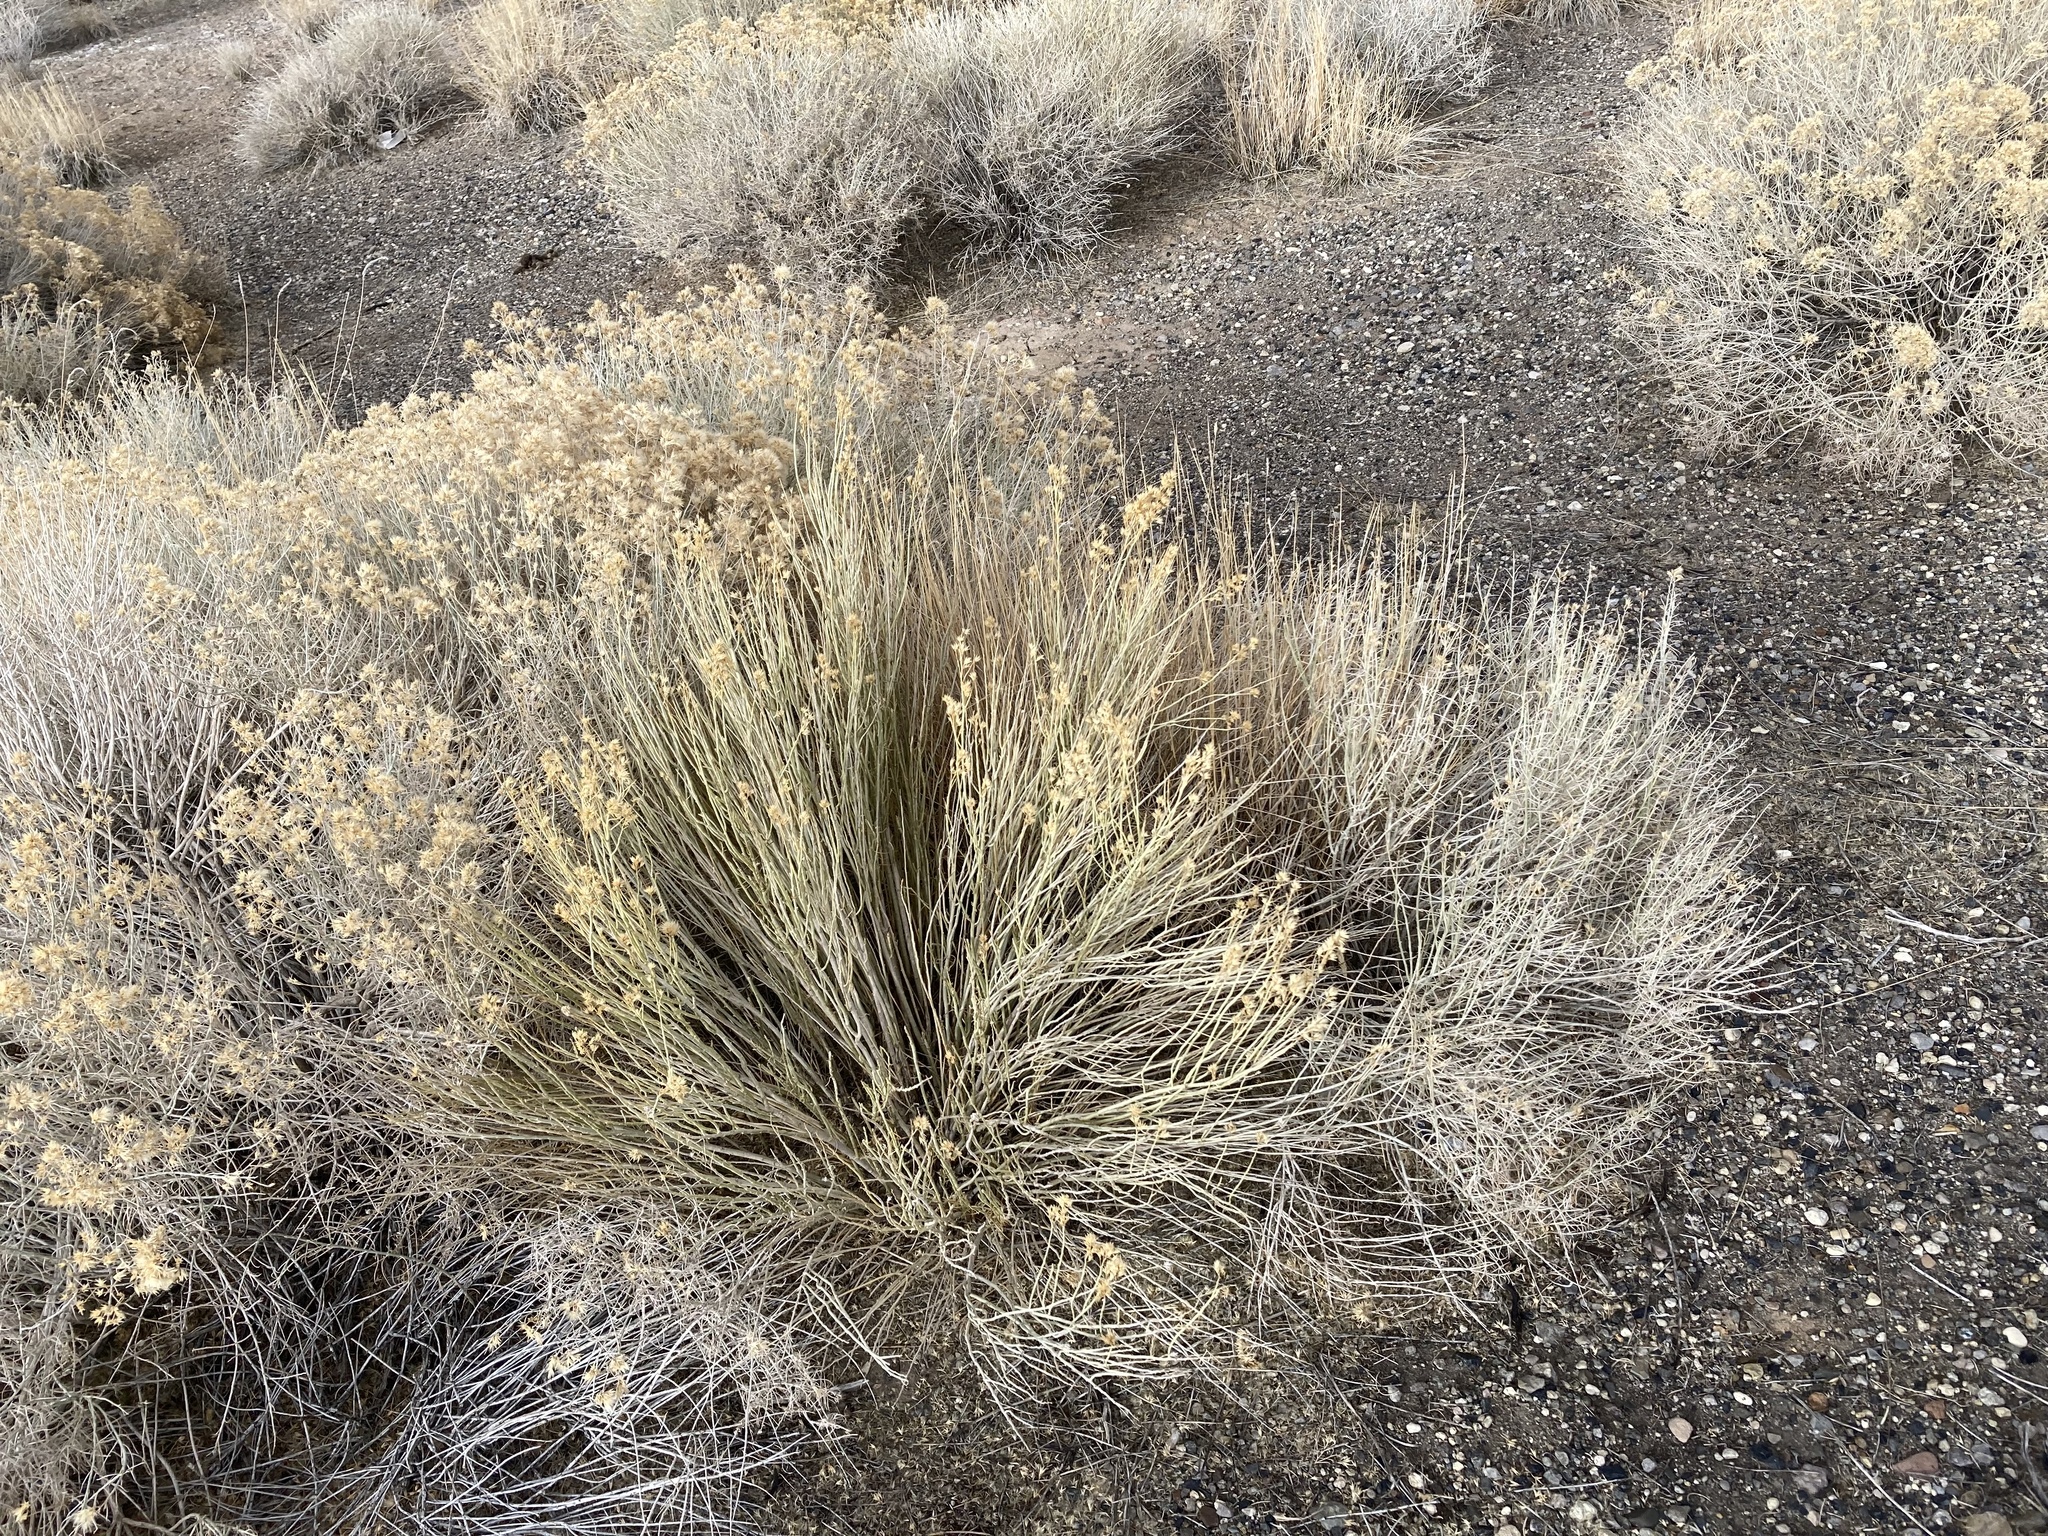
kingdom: Plantae
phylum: Tracheophyta
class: Magnoliopsida
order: Asterales
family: Asteraceae
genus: Ericameria
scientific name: Ericameria nauseosa
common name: Rubber rabbitbrush
